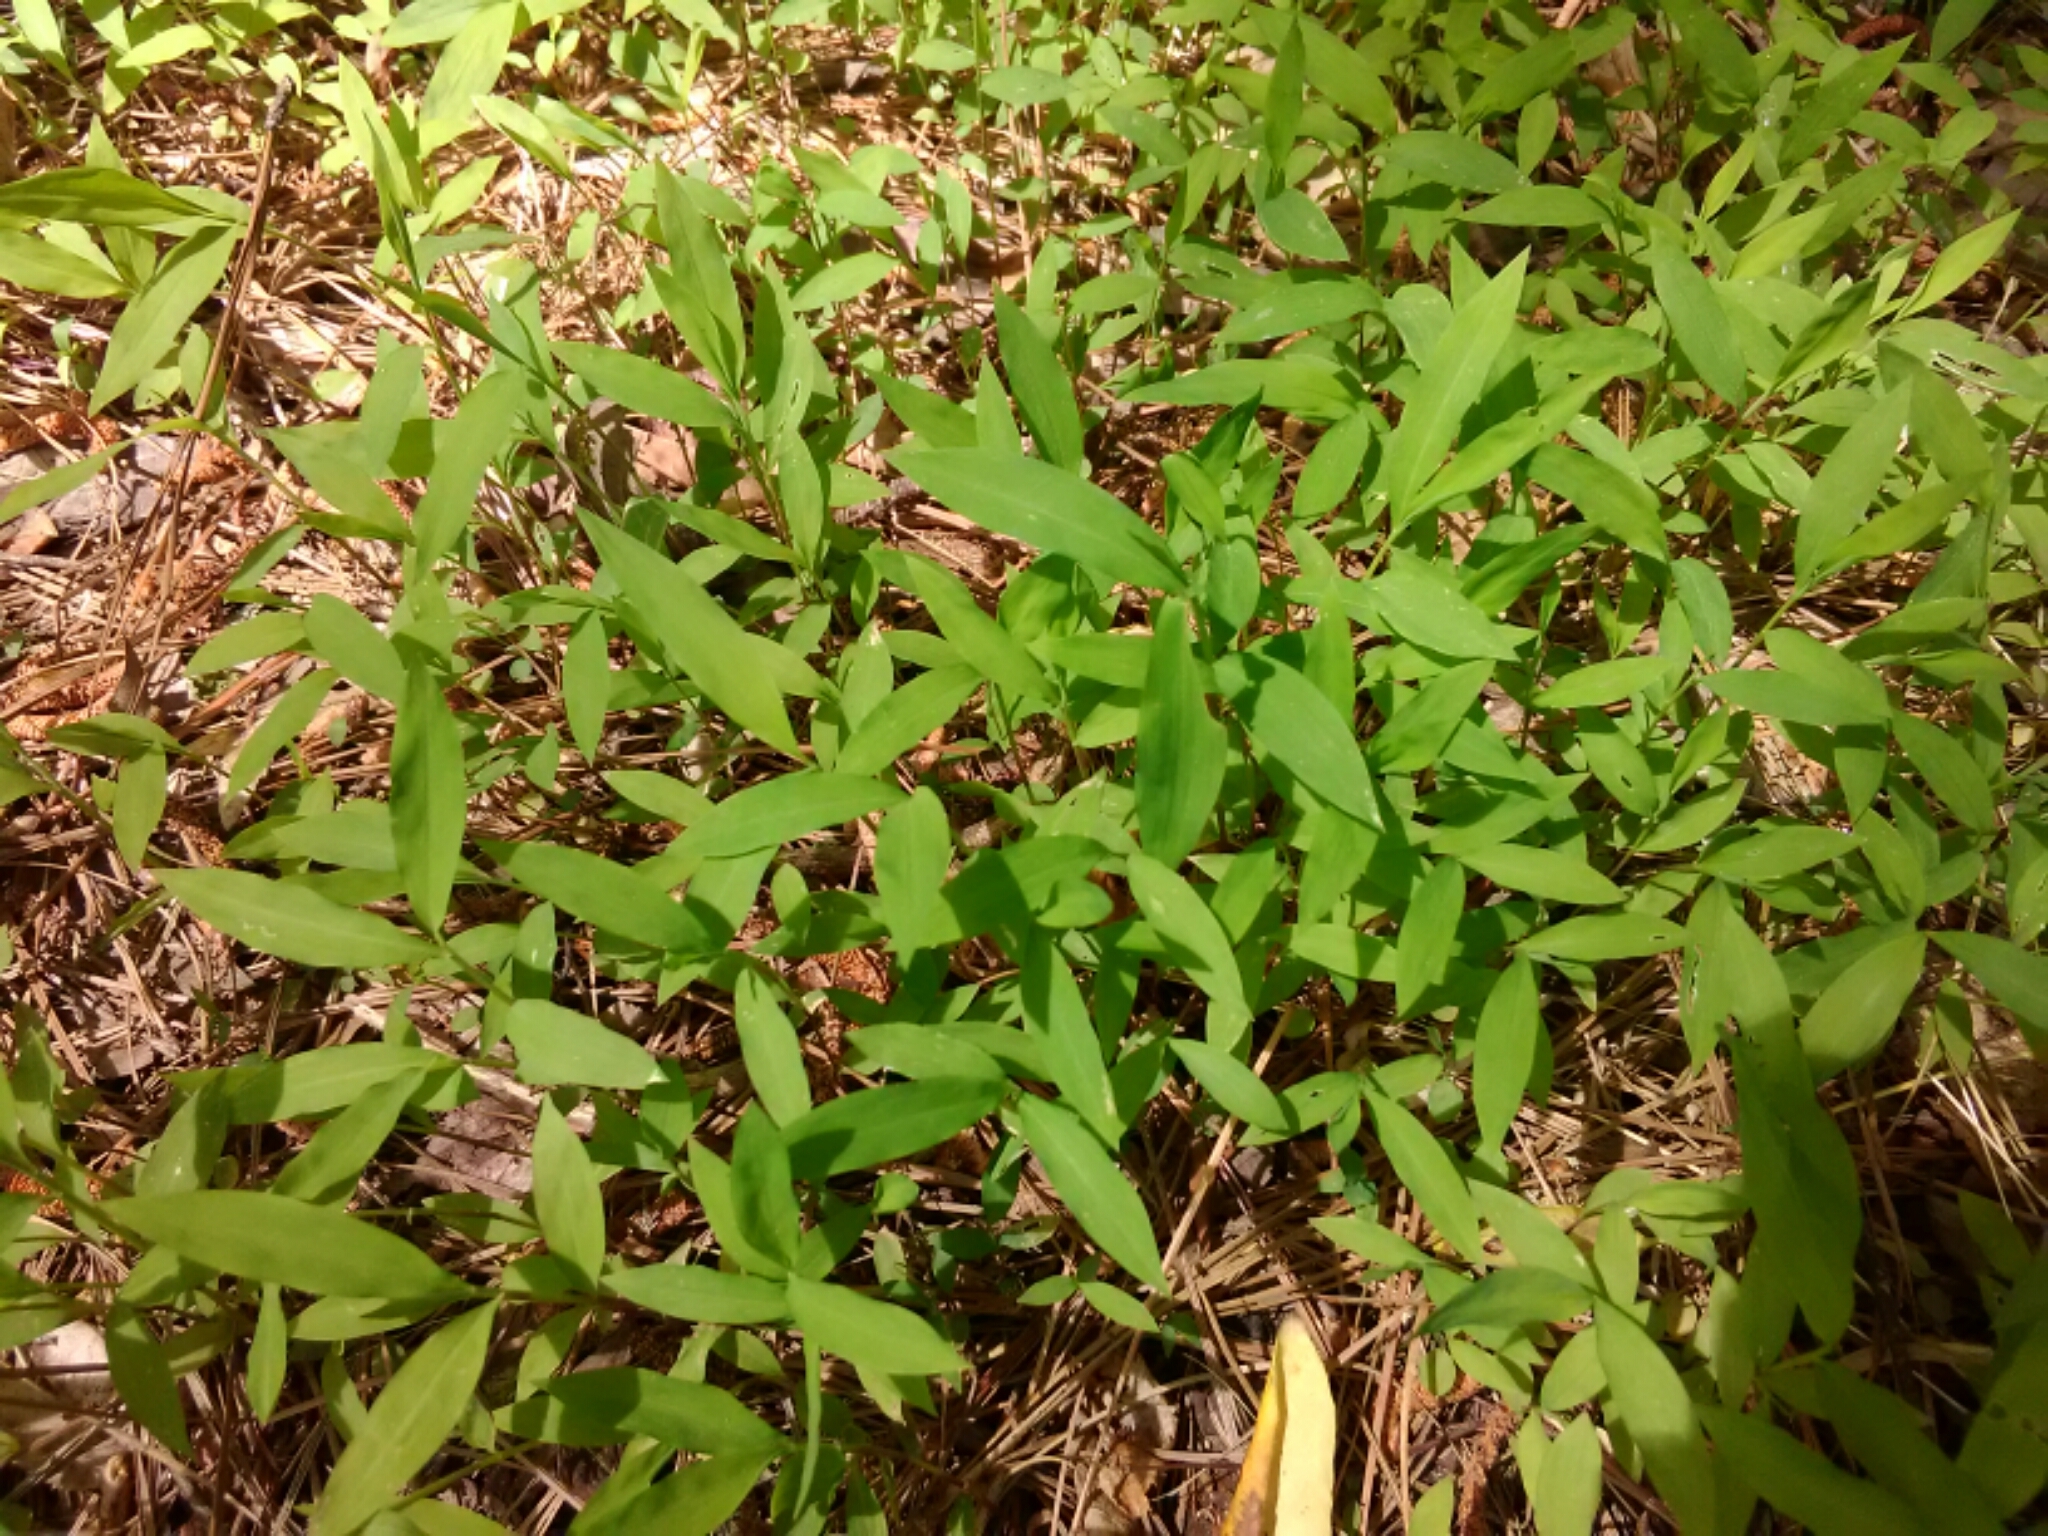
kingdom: Plantae
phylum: Tracheophyta
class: Liliopsida
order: Poales
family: Poaceae
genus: Microstegium
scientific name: Microstegium vimineum
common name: Japanese stiltgrass
